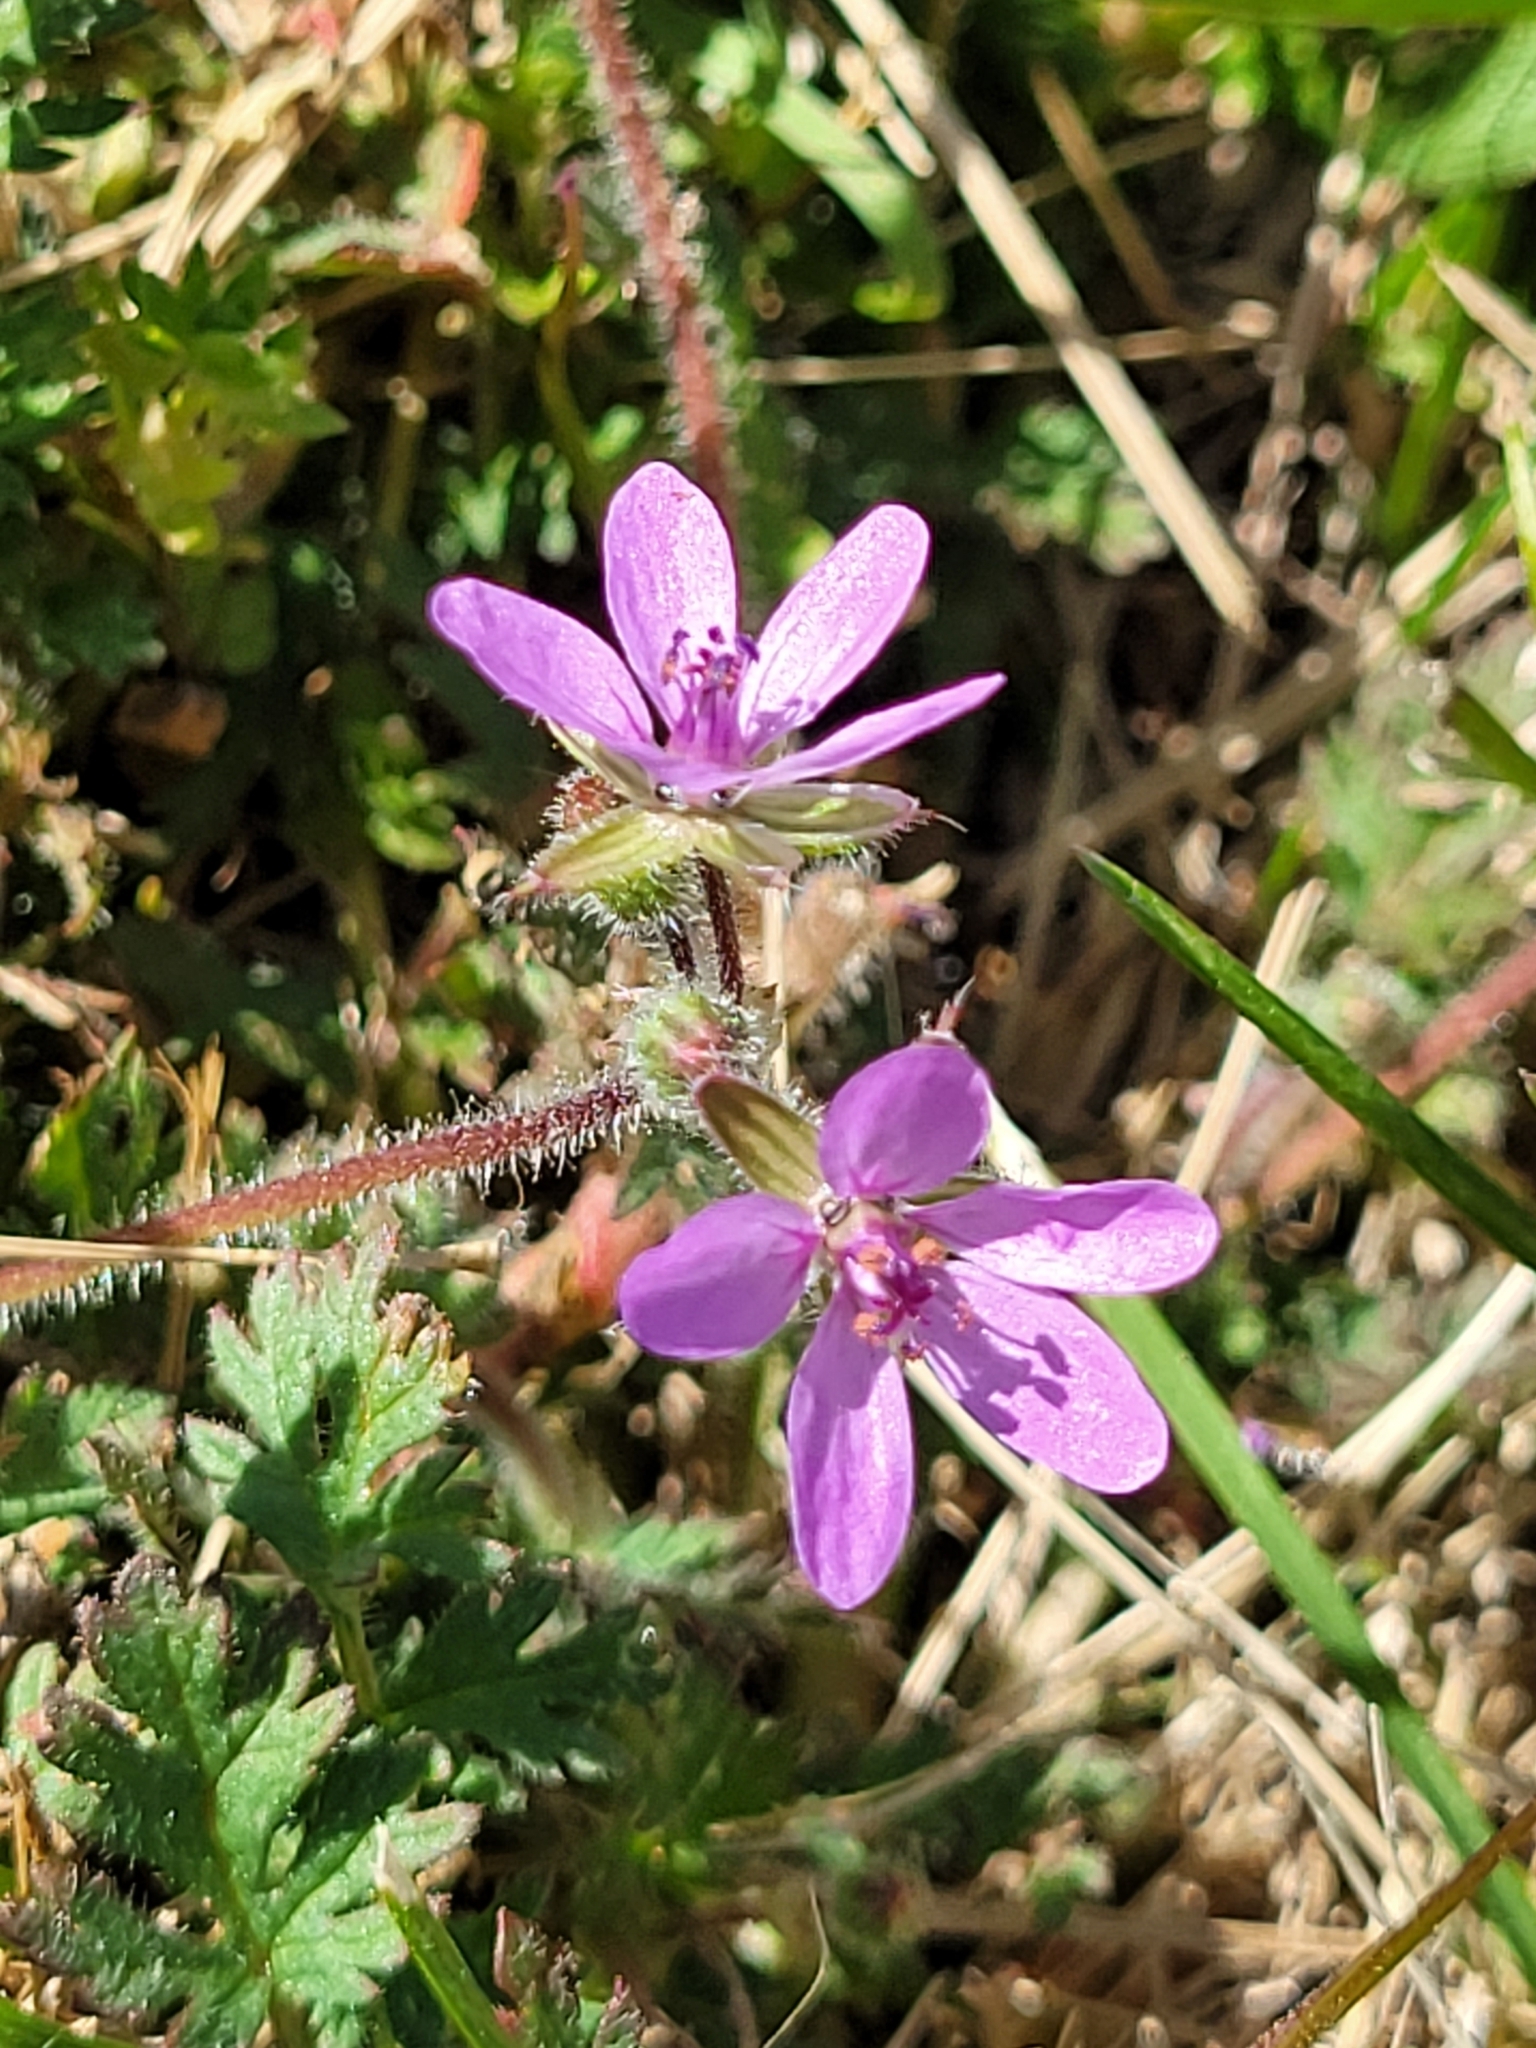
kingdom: Plantae
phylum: Tracheophyta
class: Magnoliopsida
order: Geraniales
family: Geraniaceae
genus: Erodium
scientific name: Erodium cicutarium
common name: Common stork's-bill
